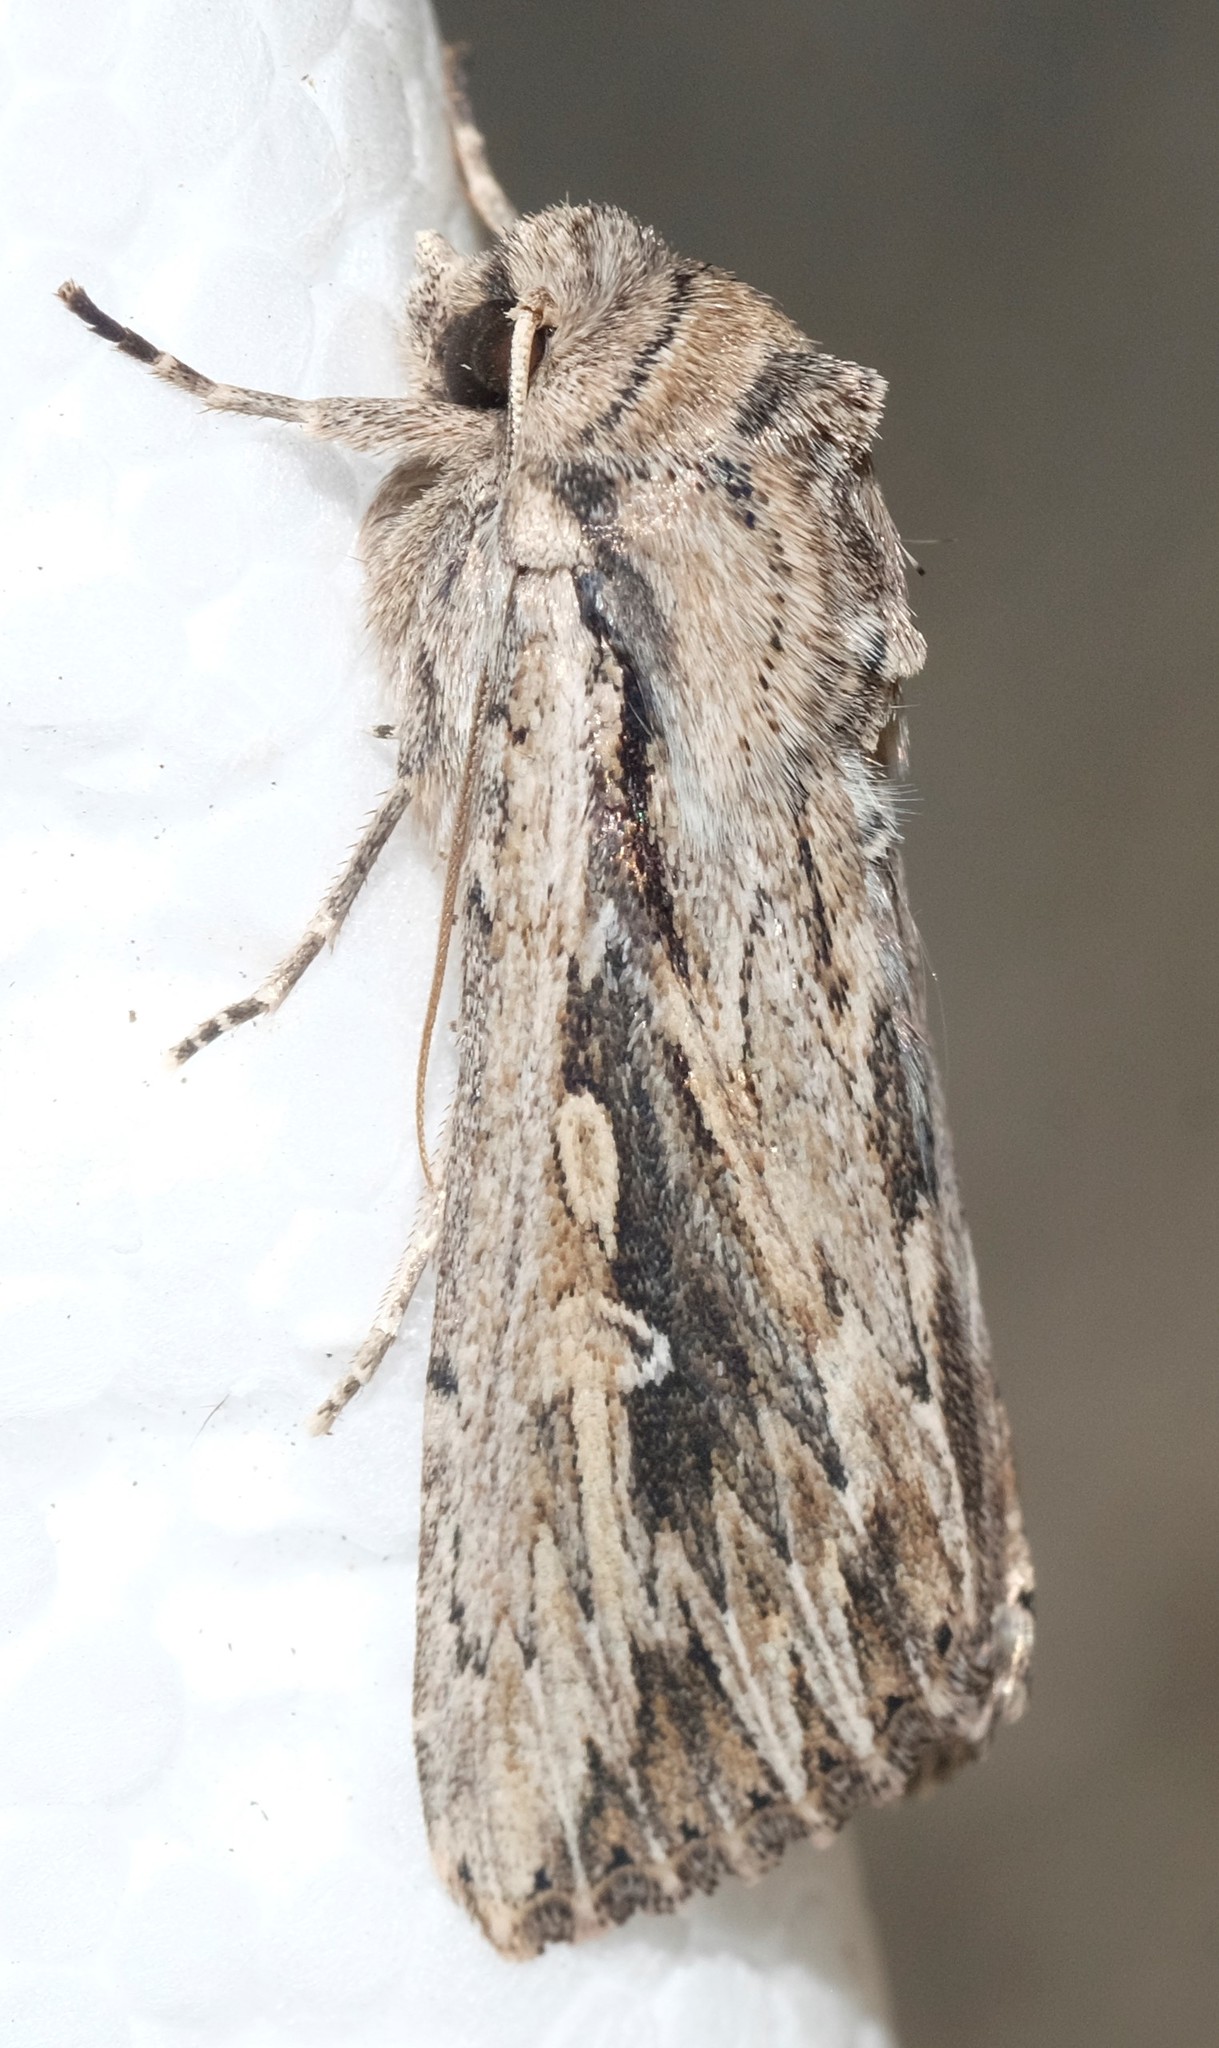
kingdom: Animalia
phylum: Arthropoda
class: Insecta
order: Lepidoptera
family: Noctuidae
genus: Persectania
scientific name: Persectania ewingii
